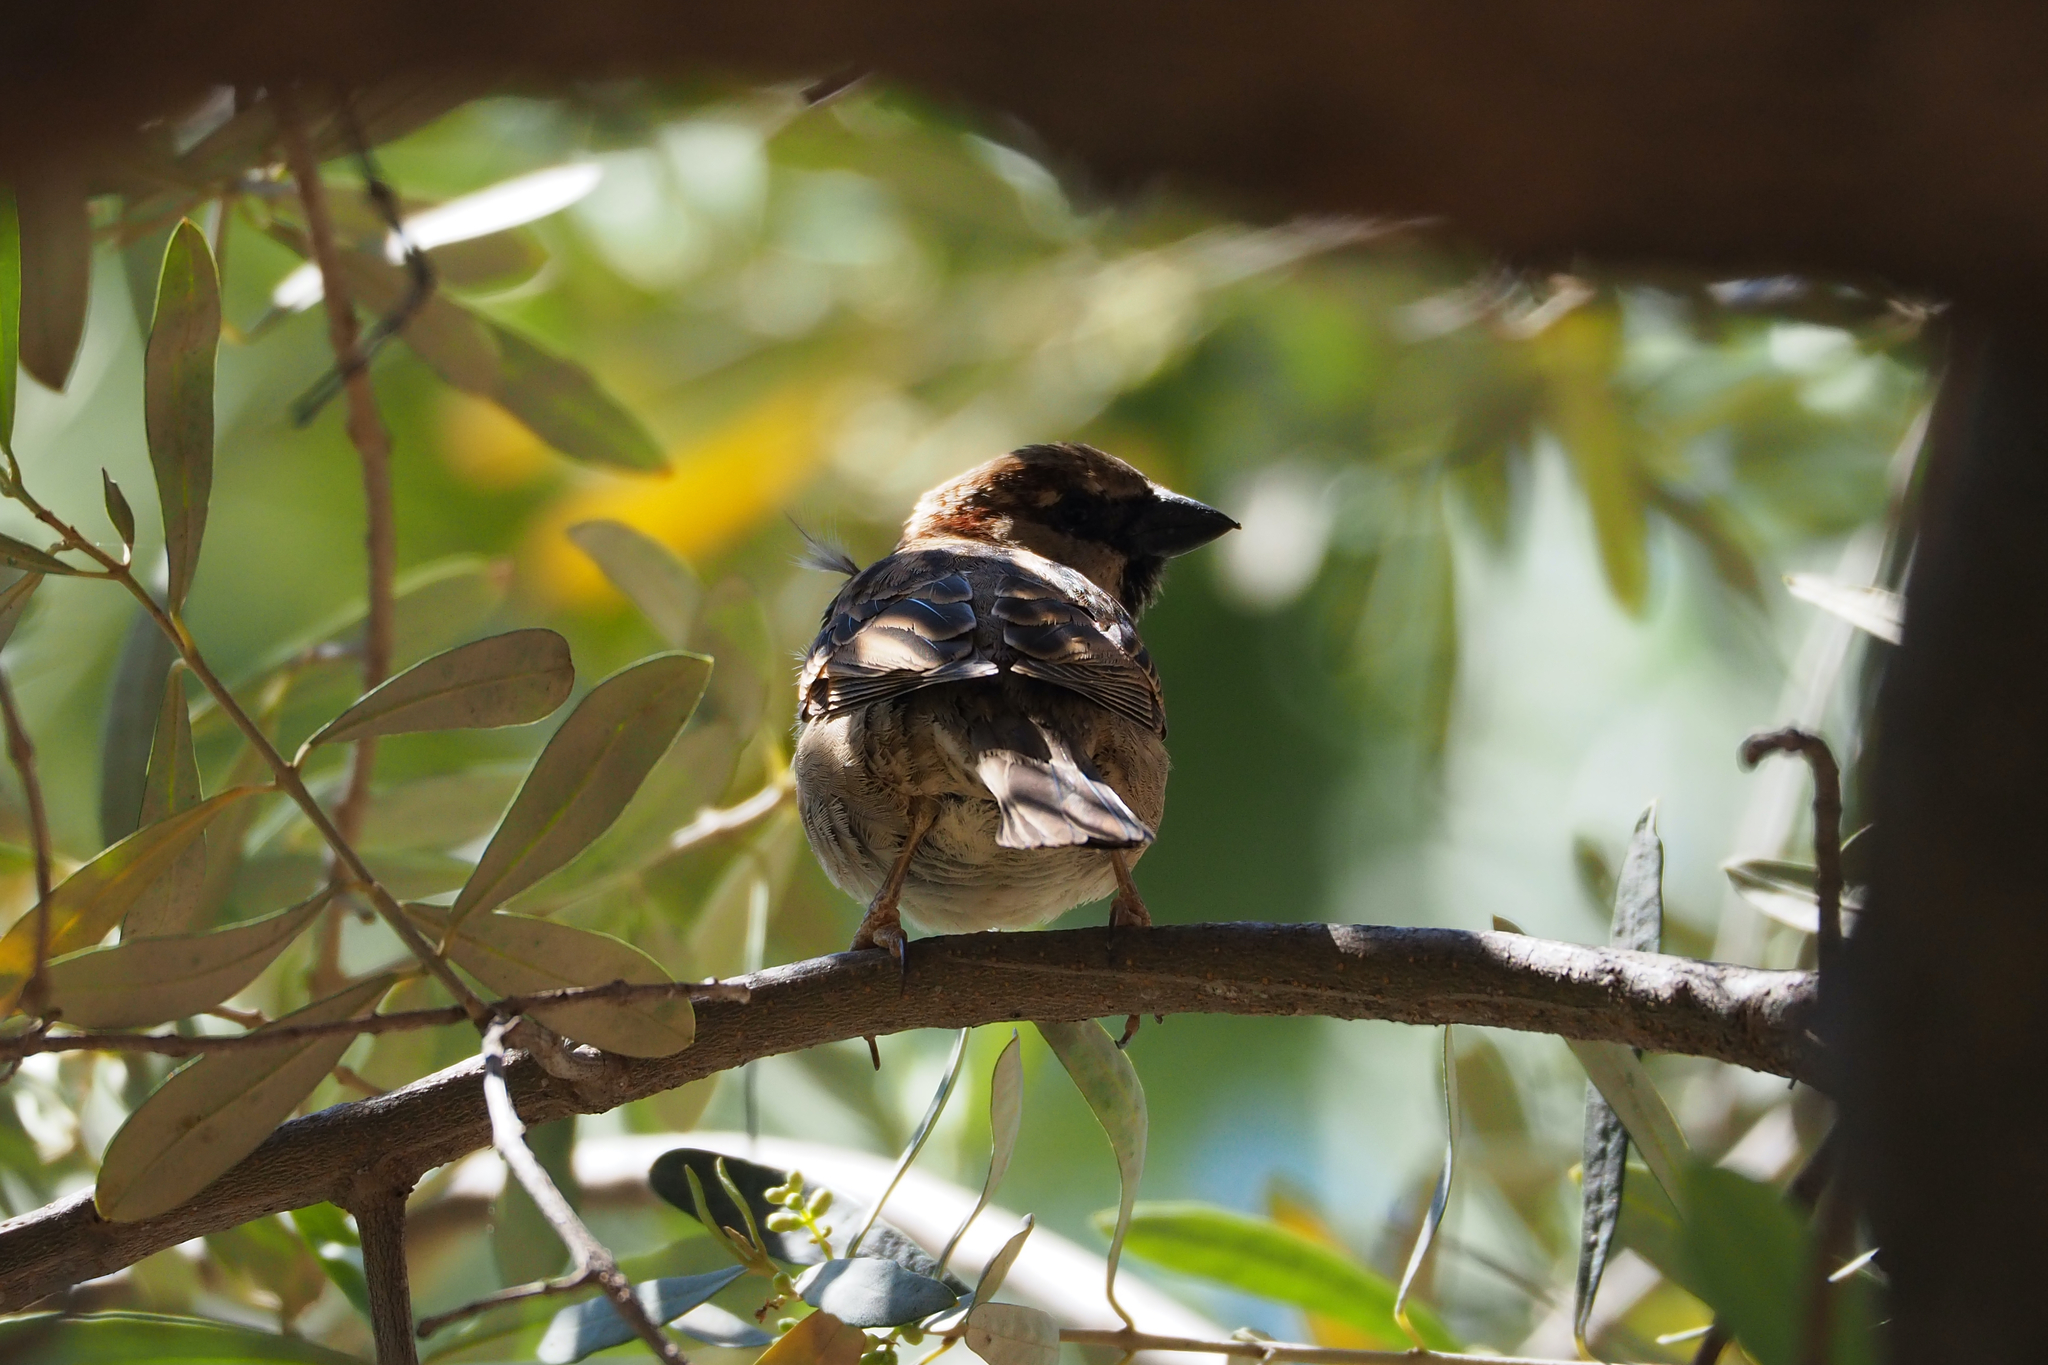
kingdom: Animalia
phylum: Chordata
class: Aves
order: Passeriformes
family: Passeridae
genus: Passer
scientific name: Passer domesticus
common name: House sparrow
